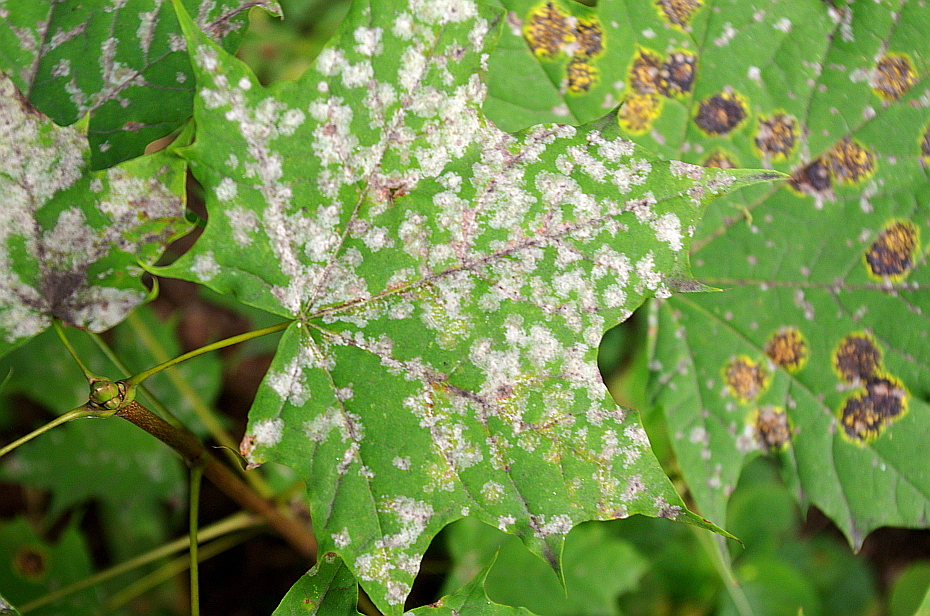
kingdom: Fungi
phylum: Ascomycota
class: Leotiomycetes
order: Helotiales
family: Erysiphaceae
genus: Sawadaea
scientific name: Sawadaea tulasnei
